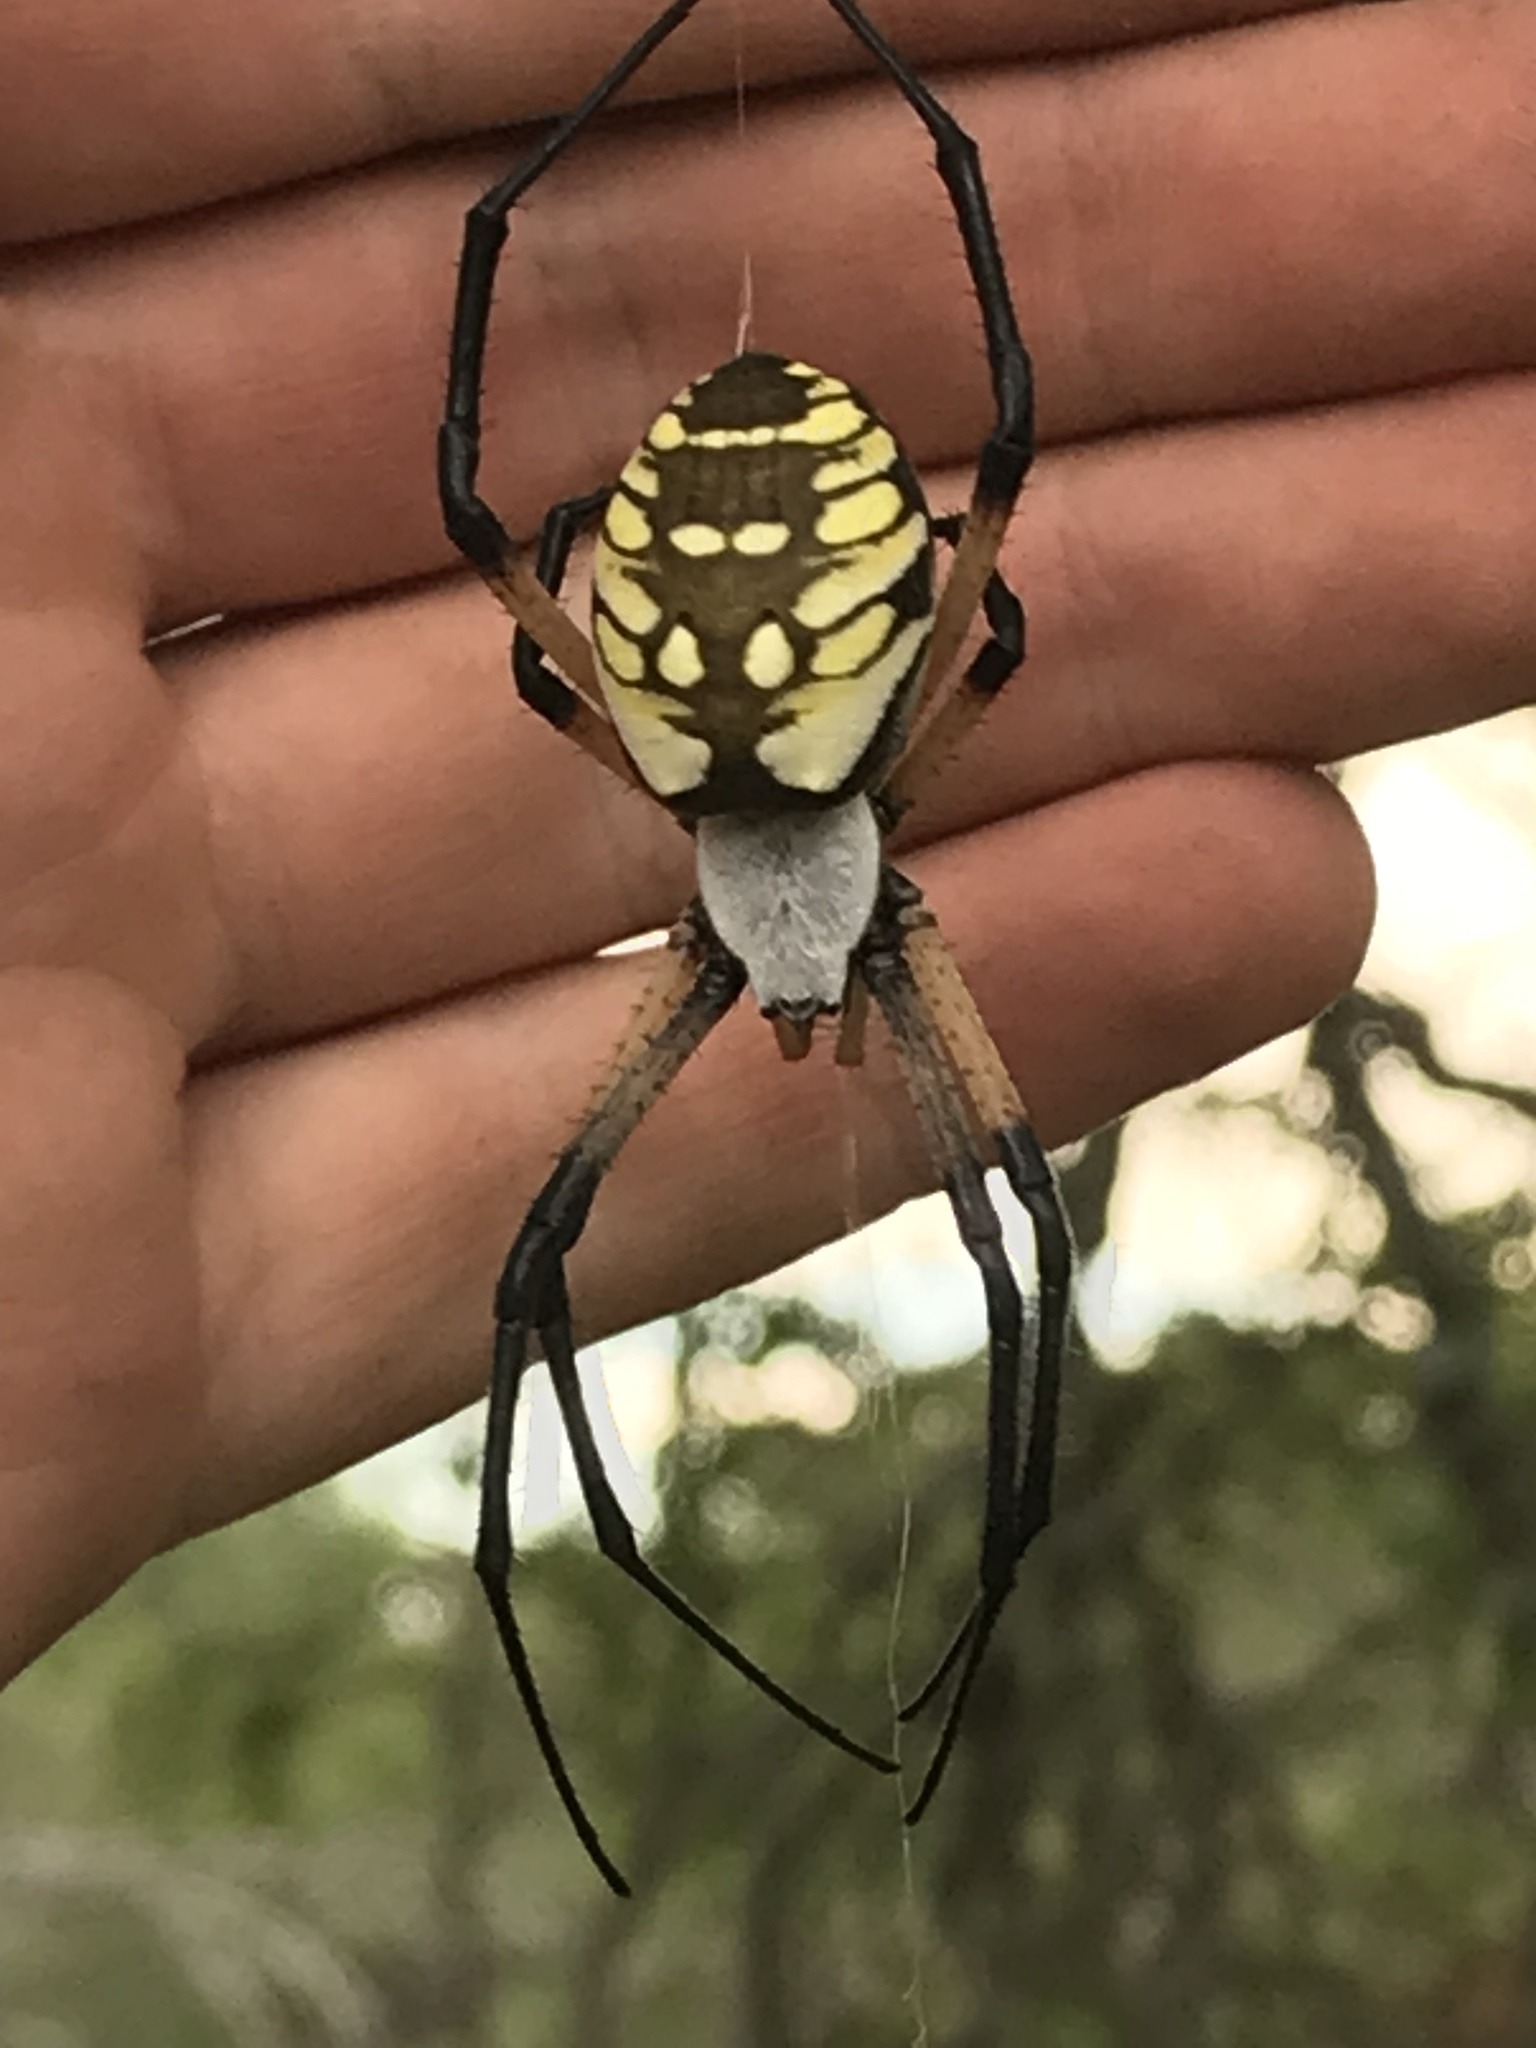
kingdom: Animalia
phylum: Arthropoda
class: Arachnida
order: Araneae
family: Araneidae
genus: Argiope
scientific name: Argiope aurantia
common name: Orb weavers
